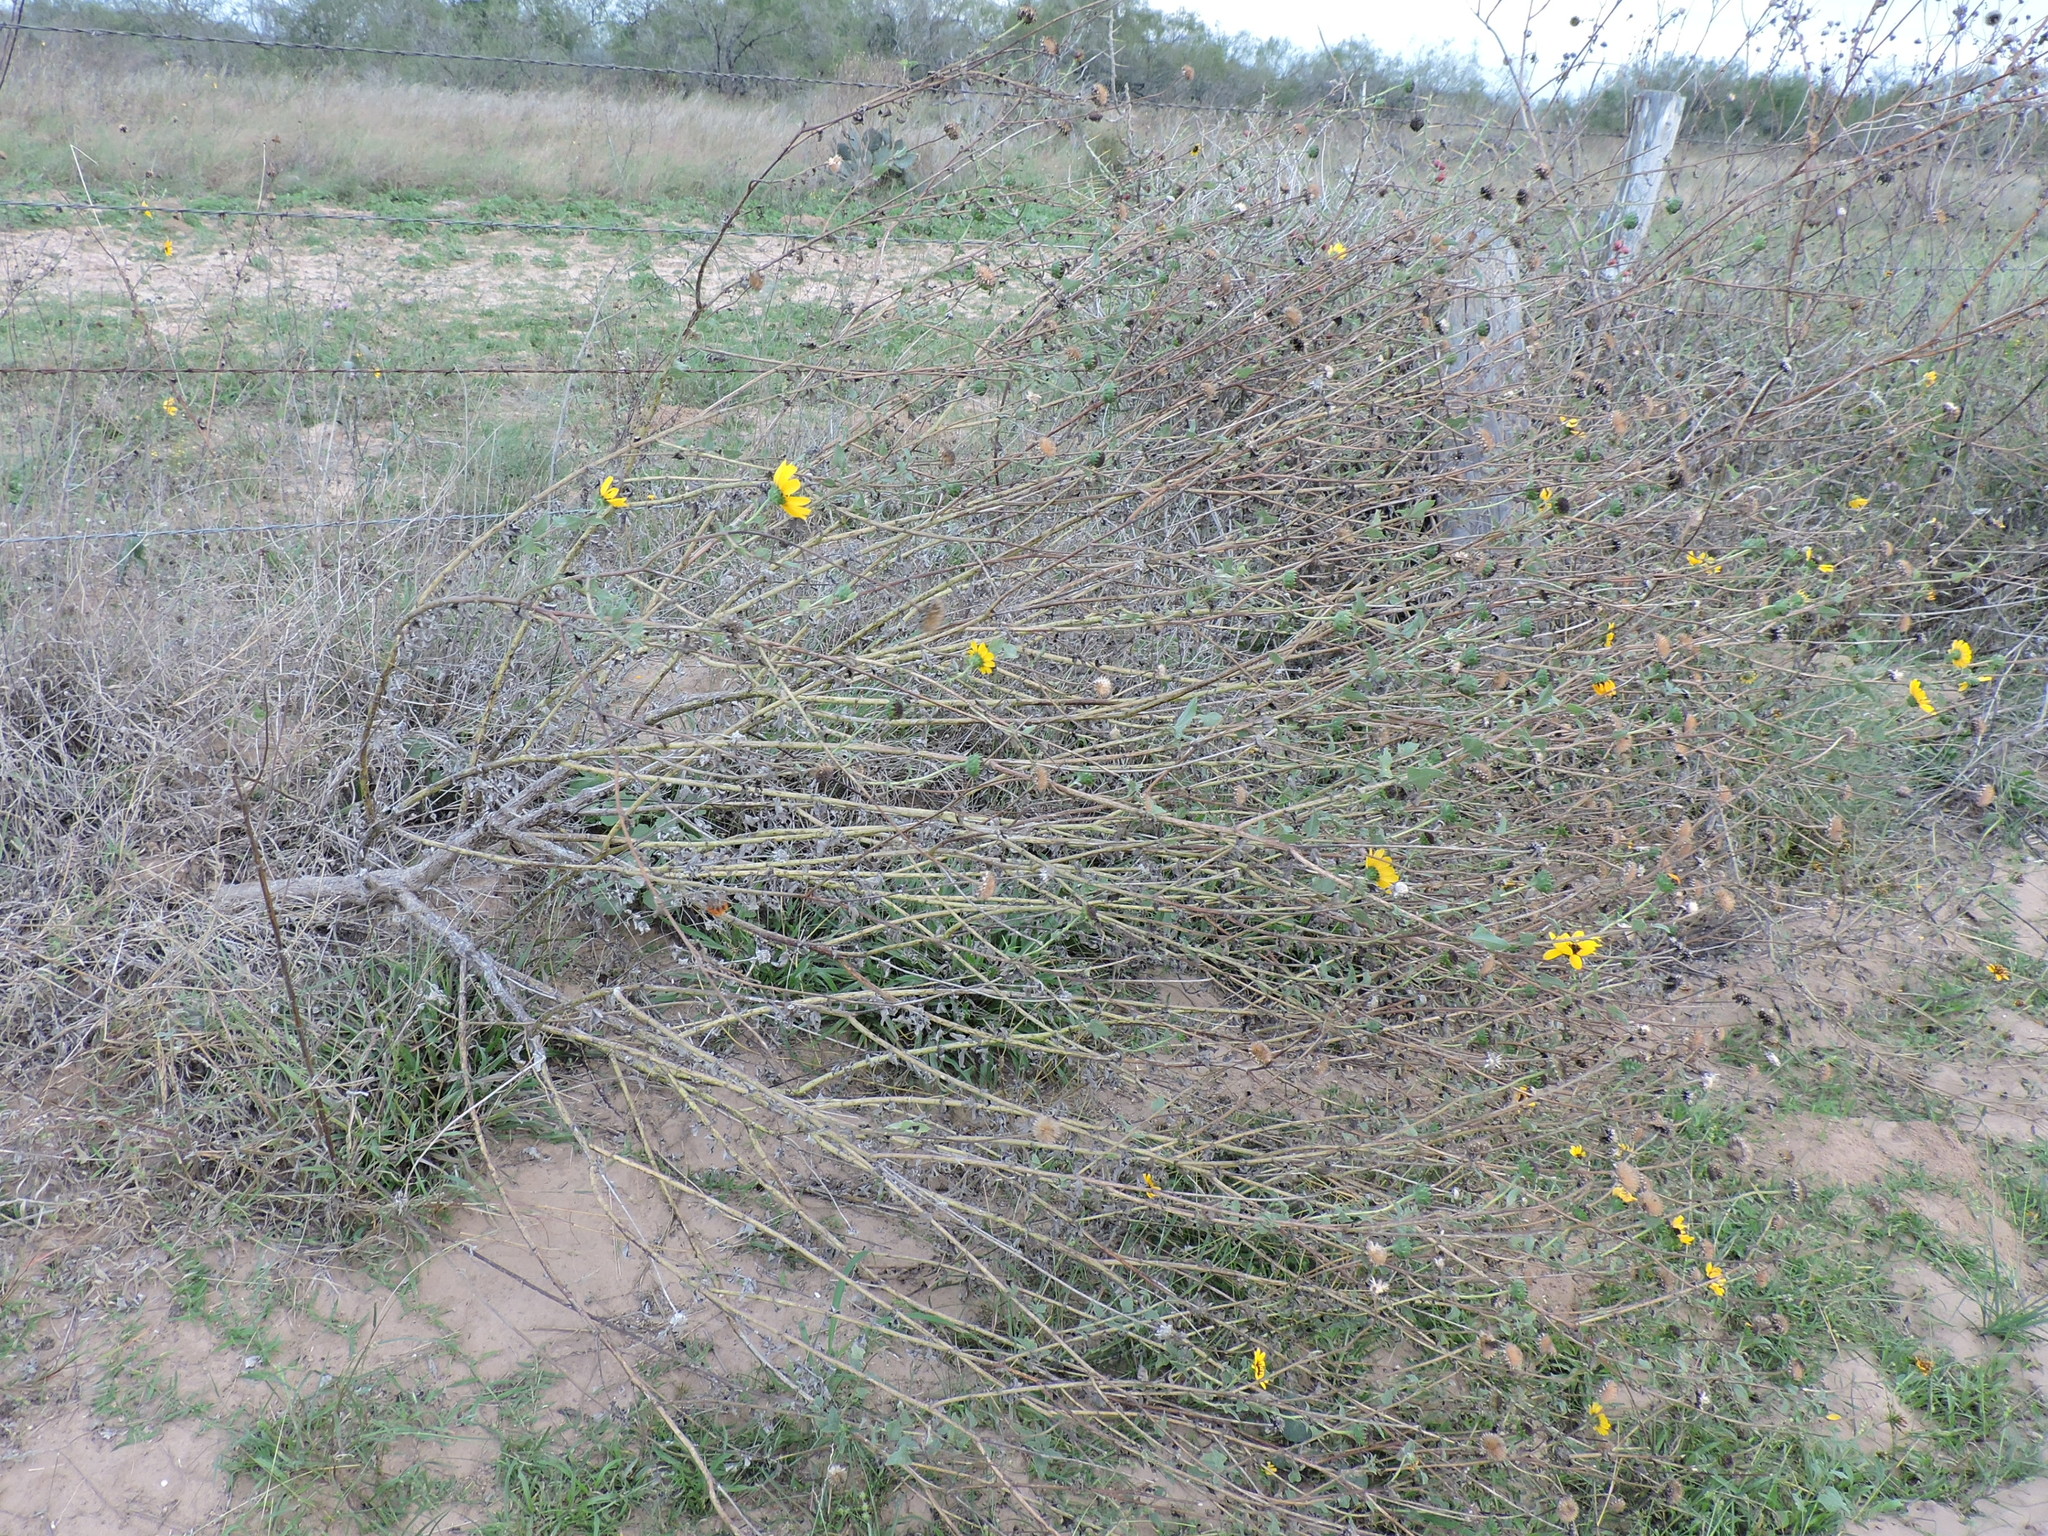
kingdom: Plantae
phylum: Tracheophyta
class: Magnoliopsida
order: Asterales
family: Asteraceae
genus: Helianthus
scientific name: Helianthus praecox
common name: Texas sunflower
